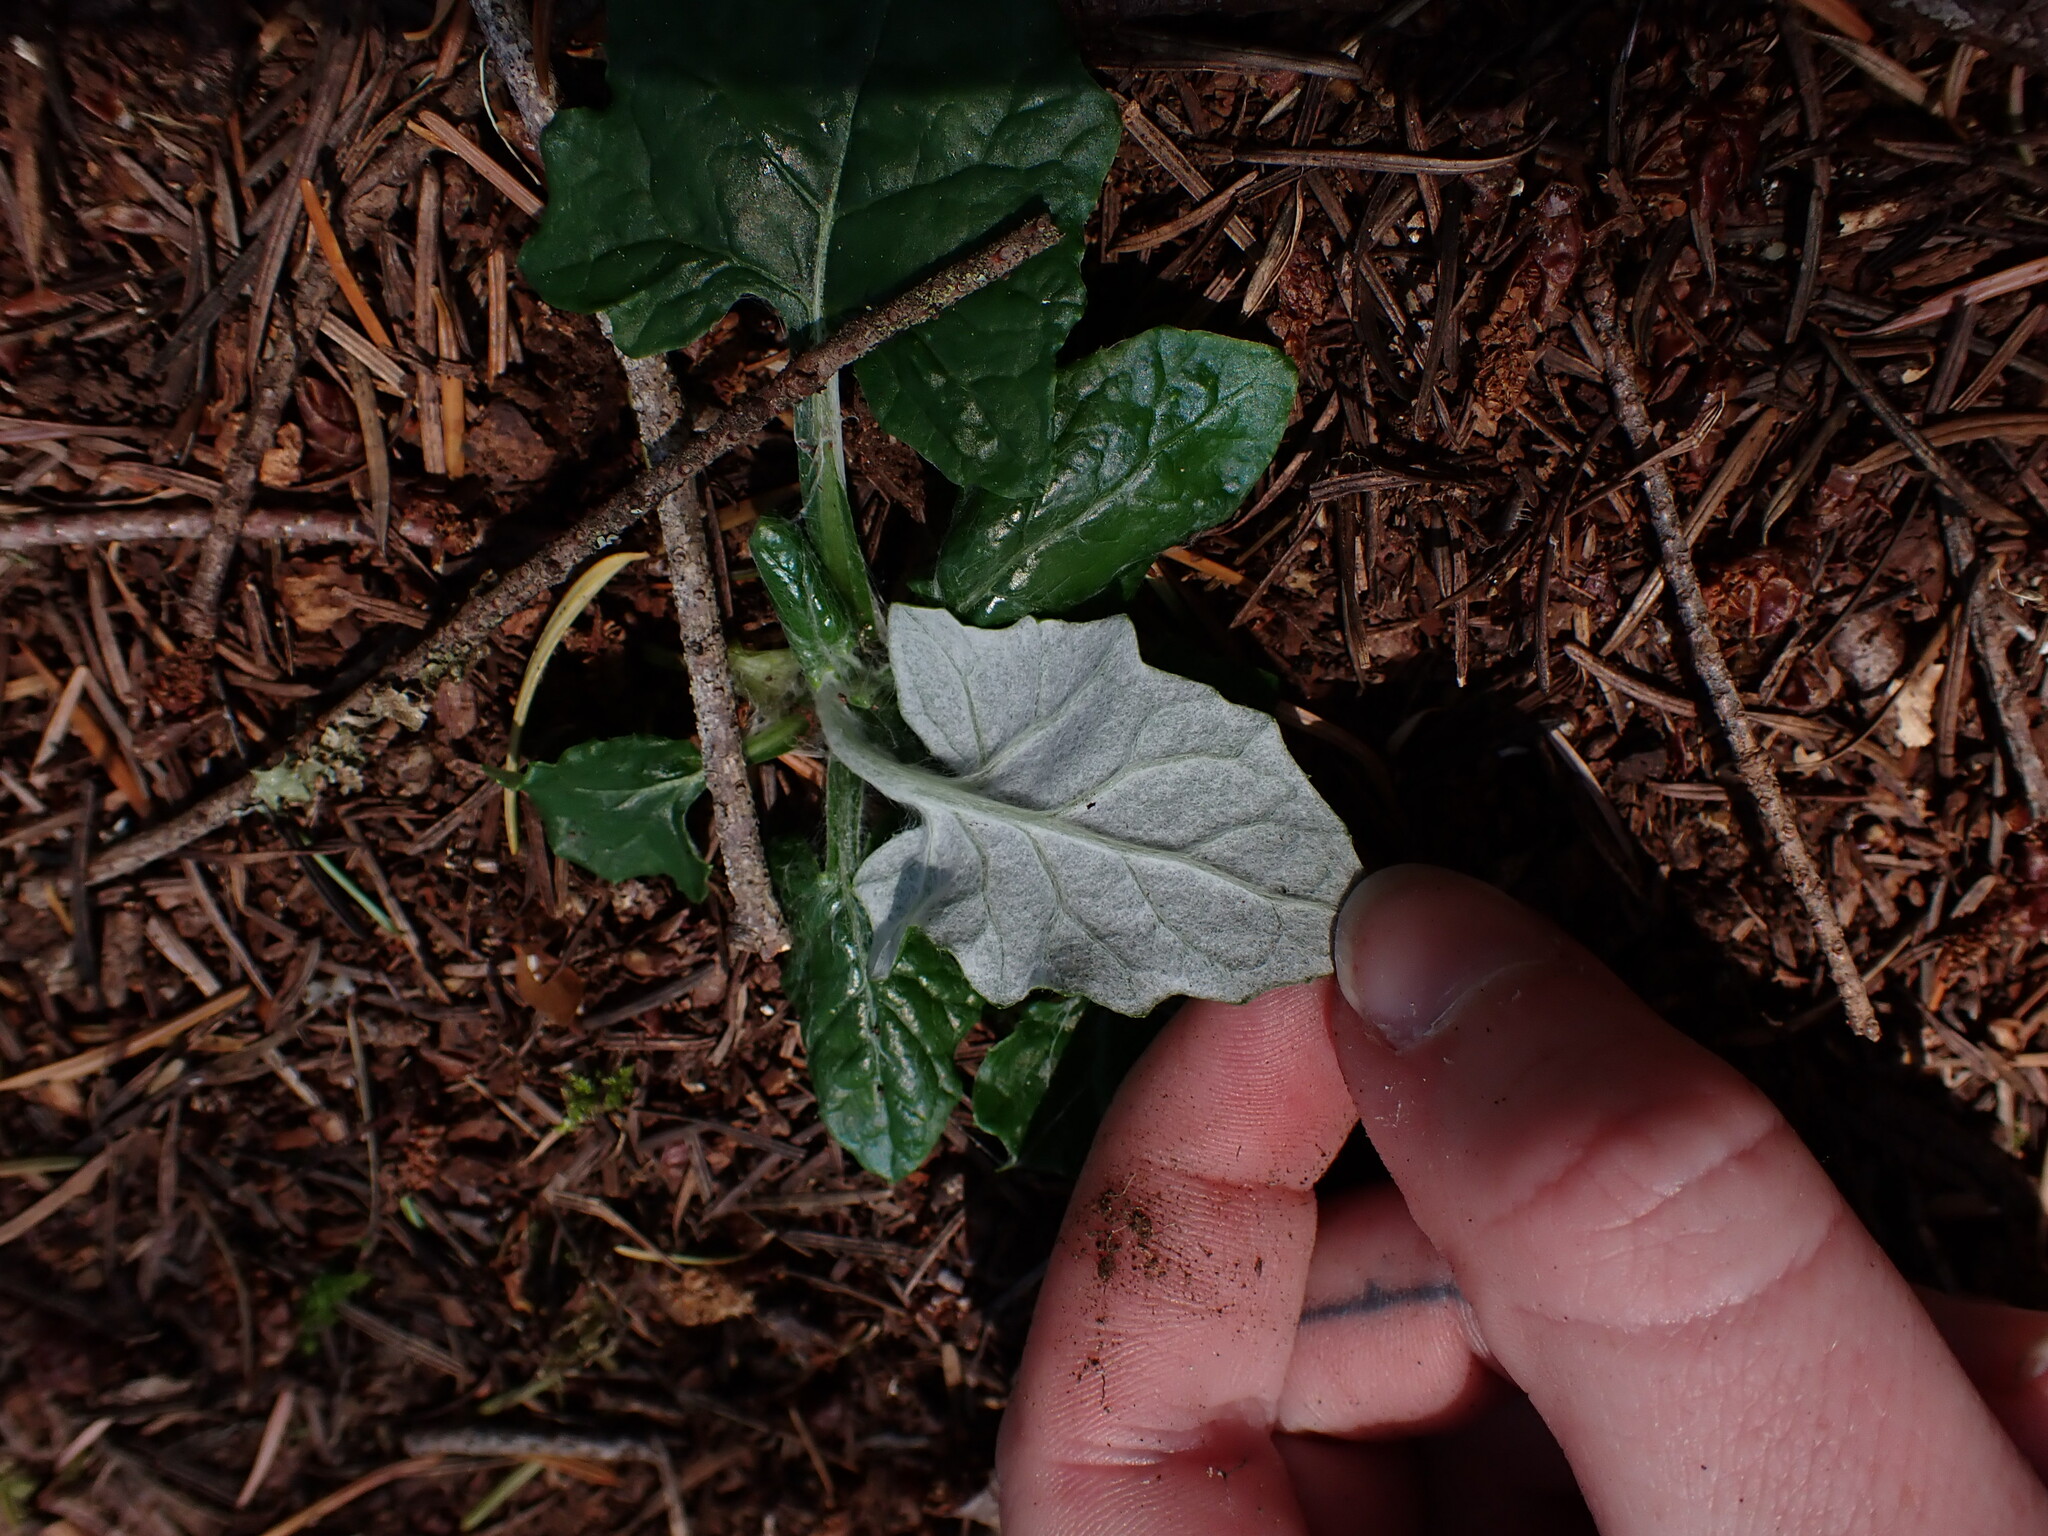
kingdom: Plantae
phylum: Tracheophyta
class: Magnoliopsida
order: Asterales
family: Asteraceae
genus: Adenocaulon
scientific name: Adenocaulon bicolor
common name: Trailplant
